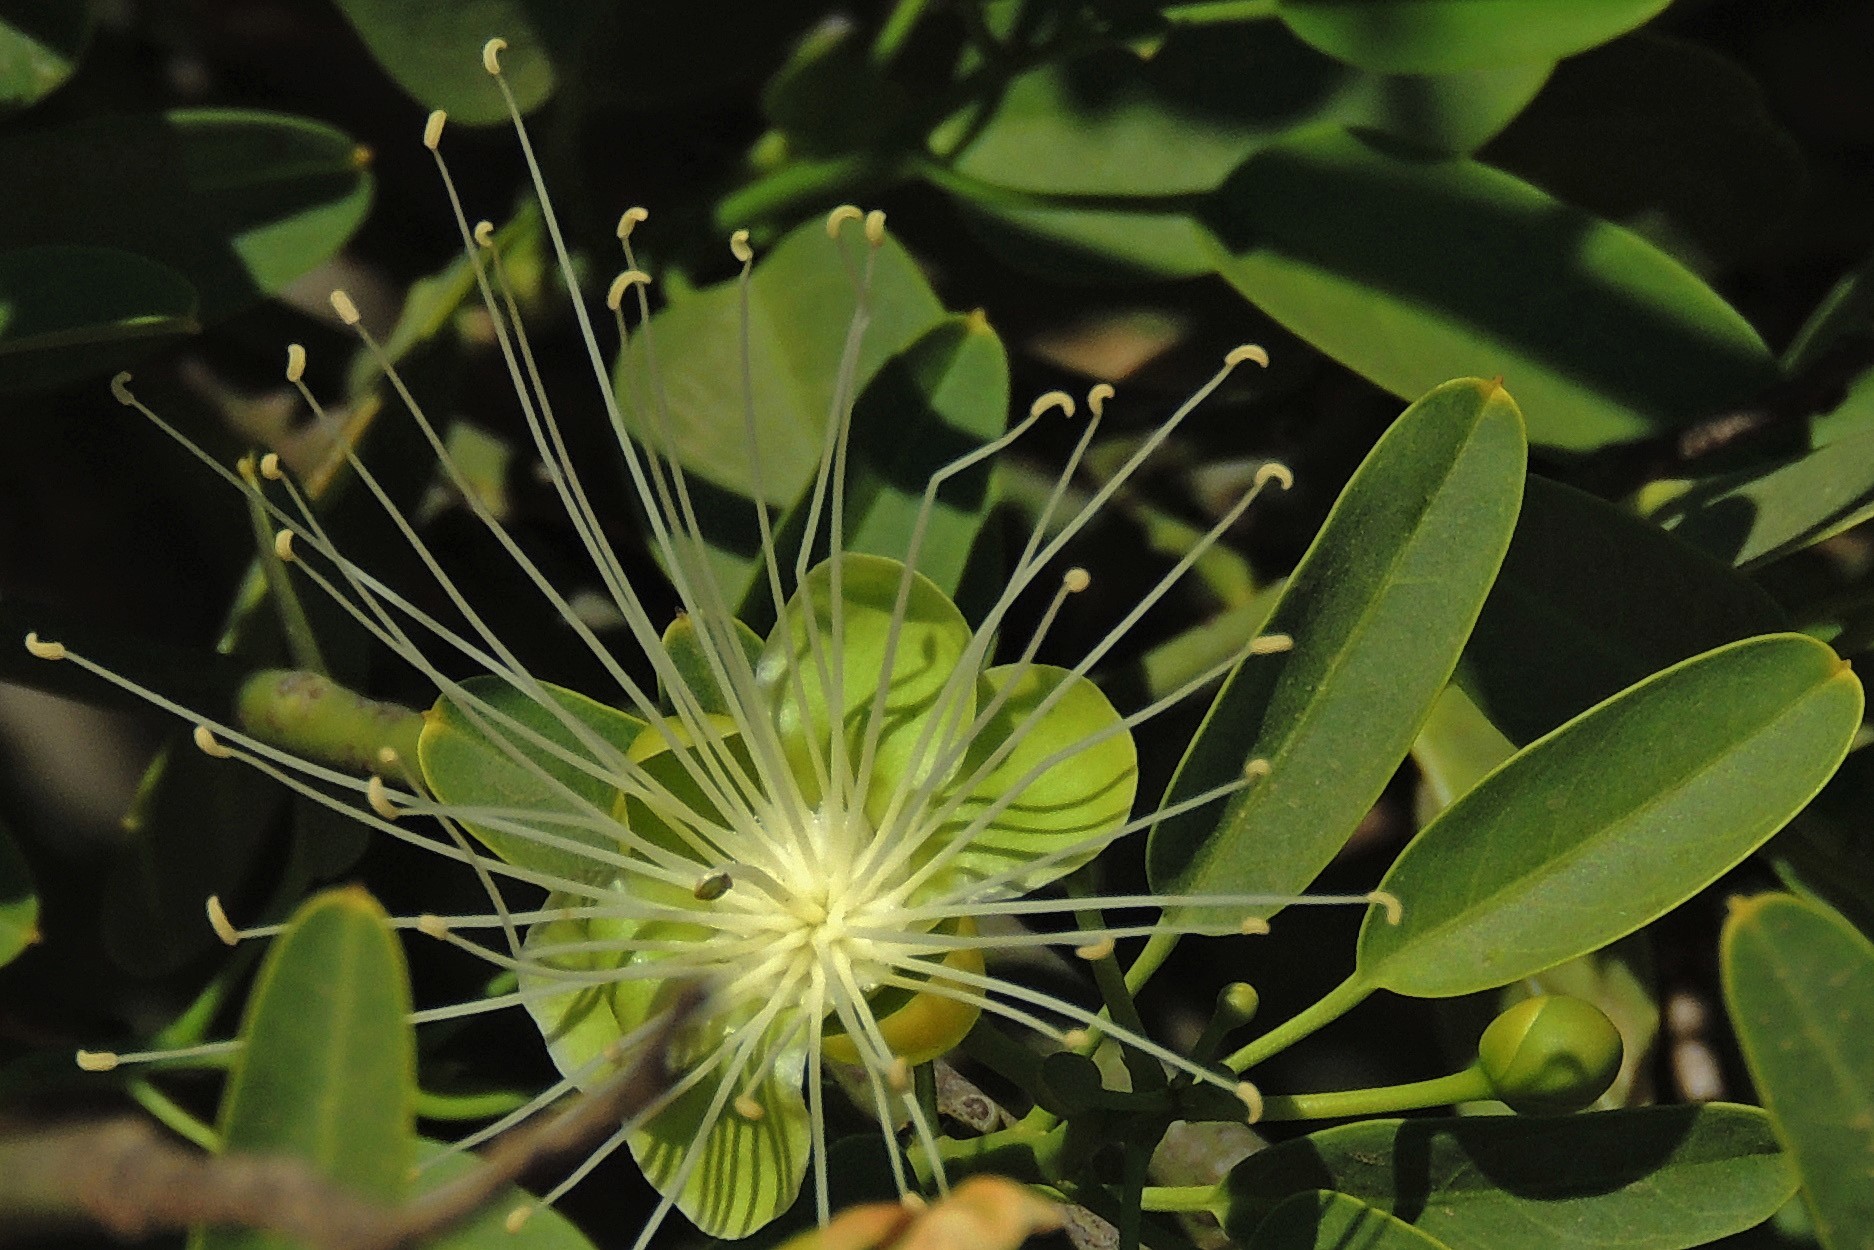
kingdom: Plantae
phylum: Tracheophyta
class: Magnoliopsida
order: Brassicales
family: Capparaceae
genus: Anisocapparis
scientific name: Anisocapparis speciosa
